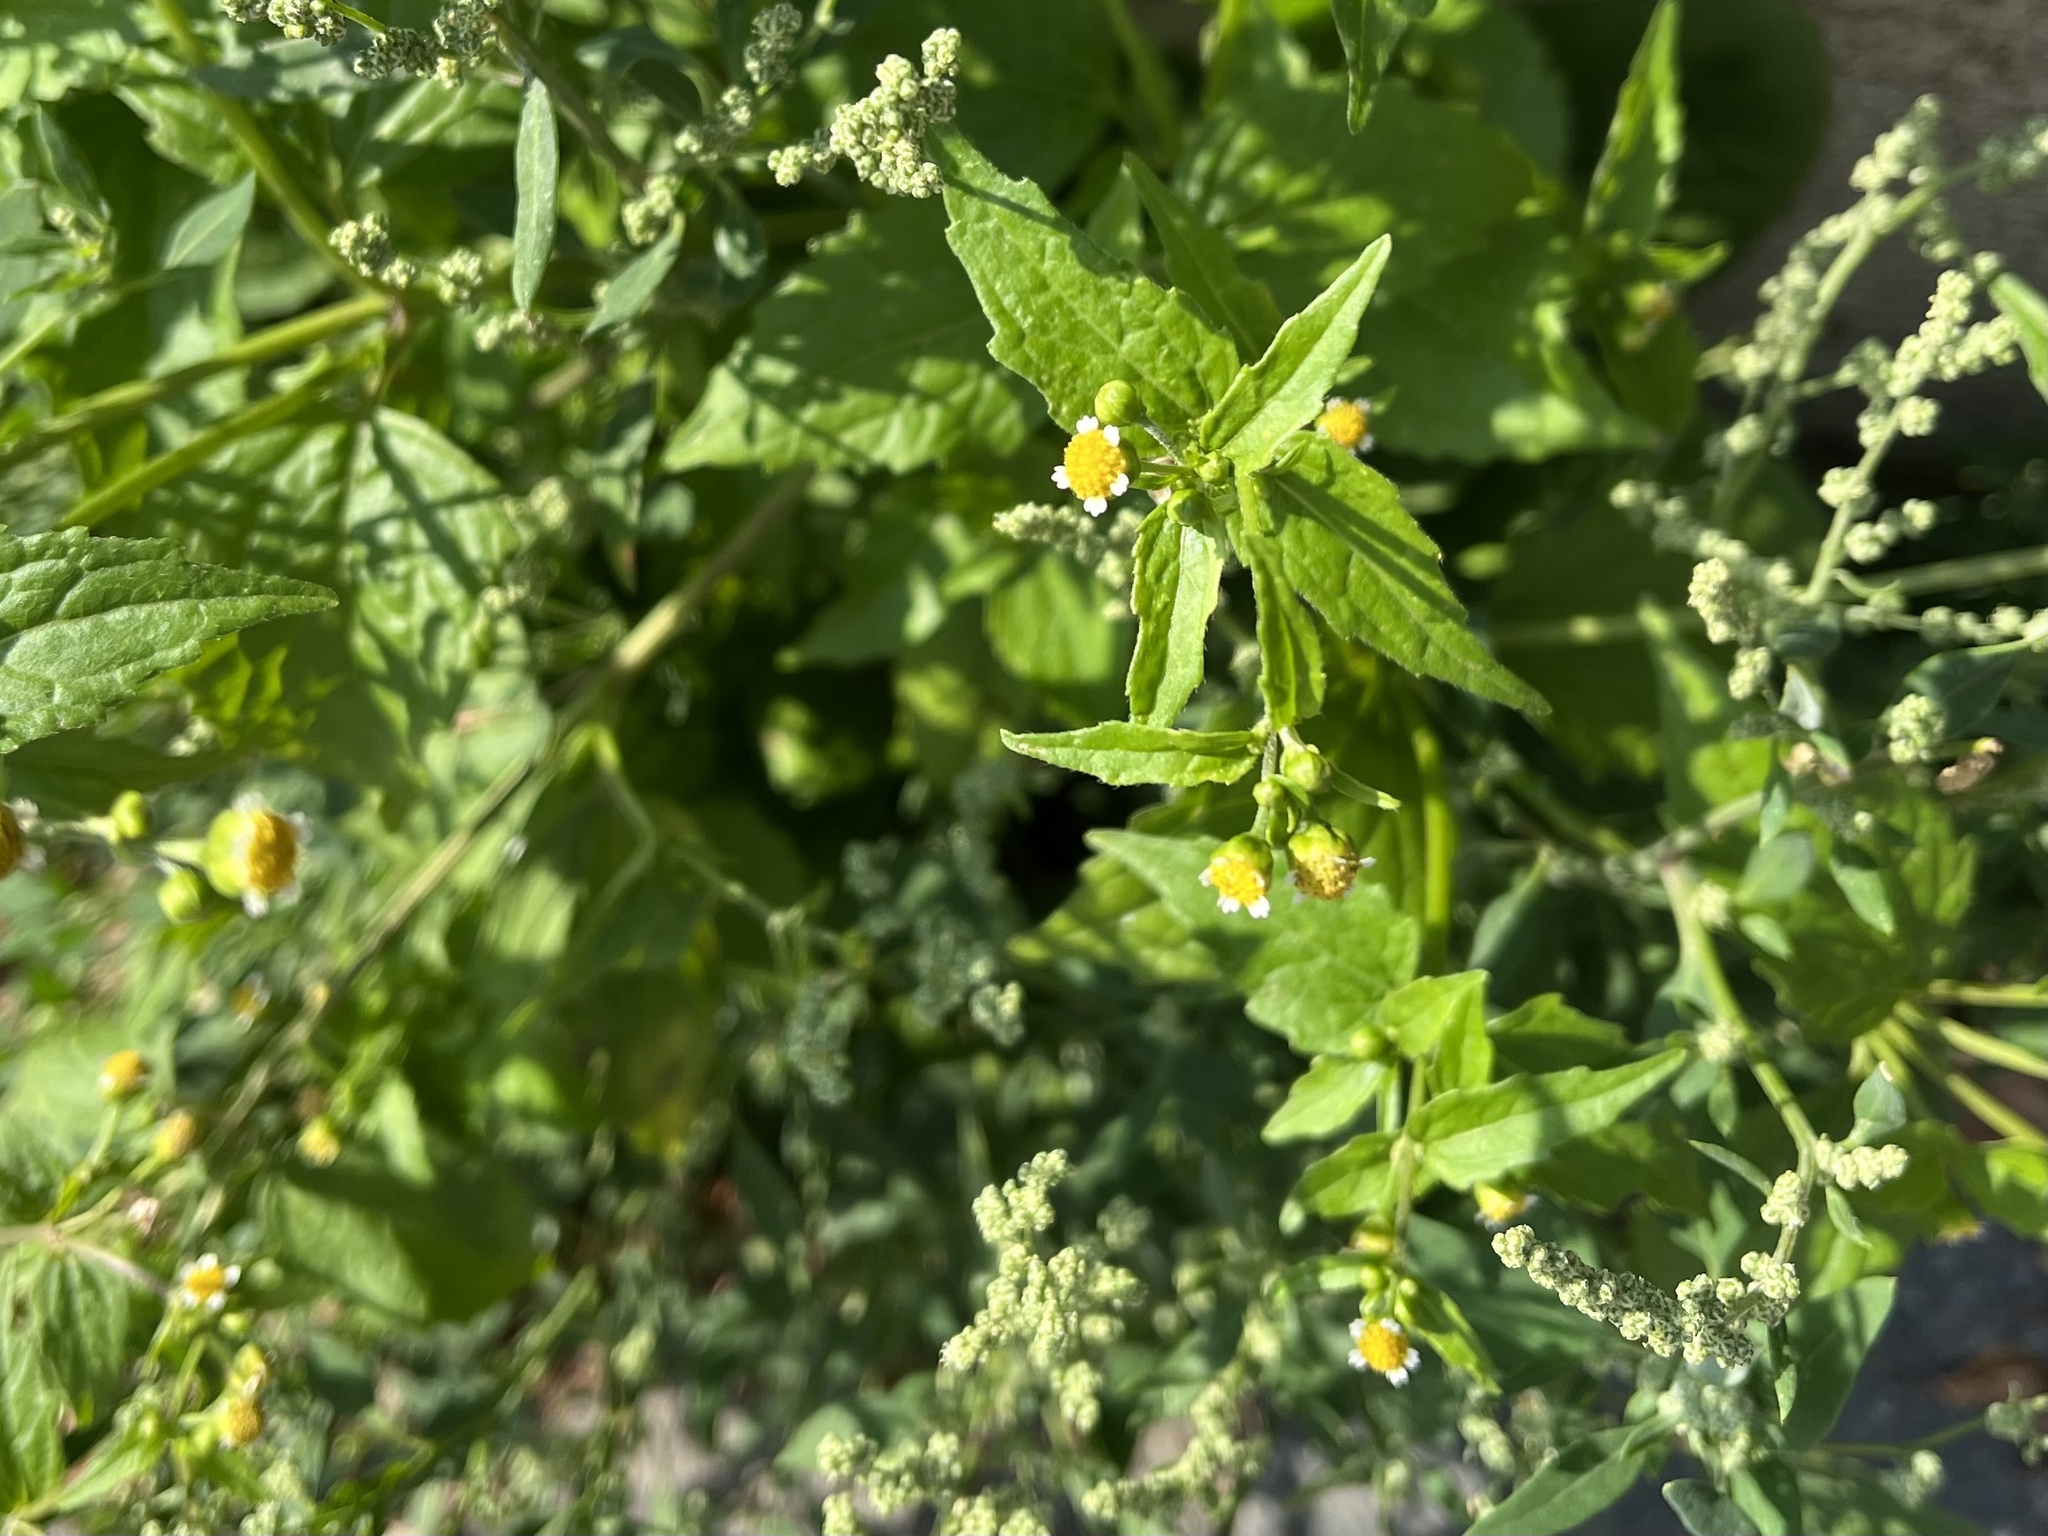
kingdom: Plantae
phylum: Tracheophyta
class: Magnoliopsida
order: Asterales
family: Asteraceae
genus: Galinsoga
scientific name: Galinsoga parviflora
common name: Gallant soldier
